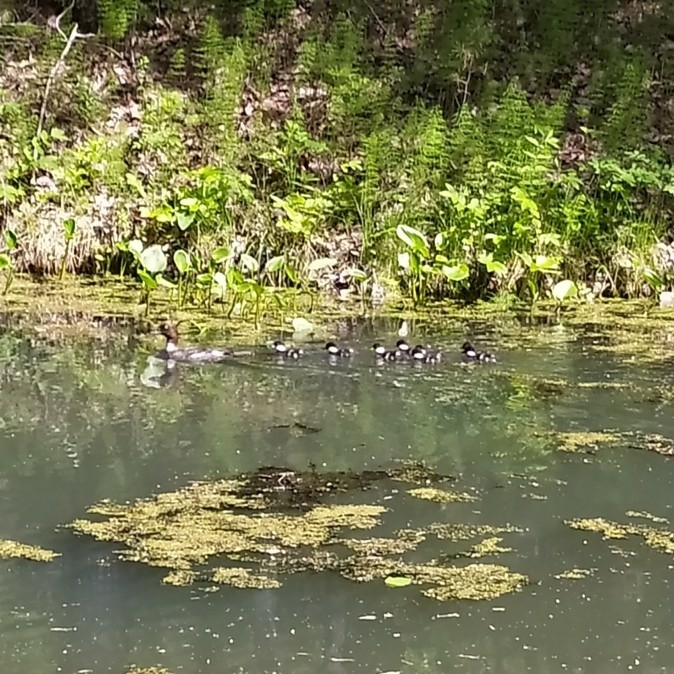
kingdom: Animalia
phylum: Chordata
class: Aves
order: Anseriformes
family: Anatidae
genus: Bucephala
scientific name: Bucephala clangula
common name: Common goldeneye
